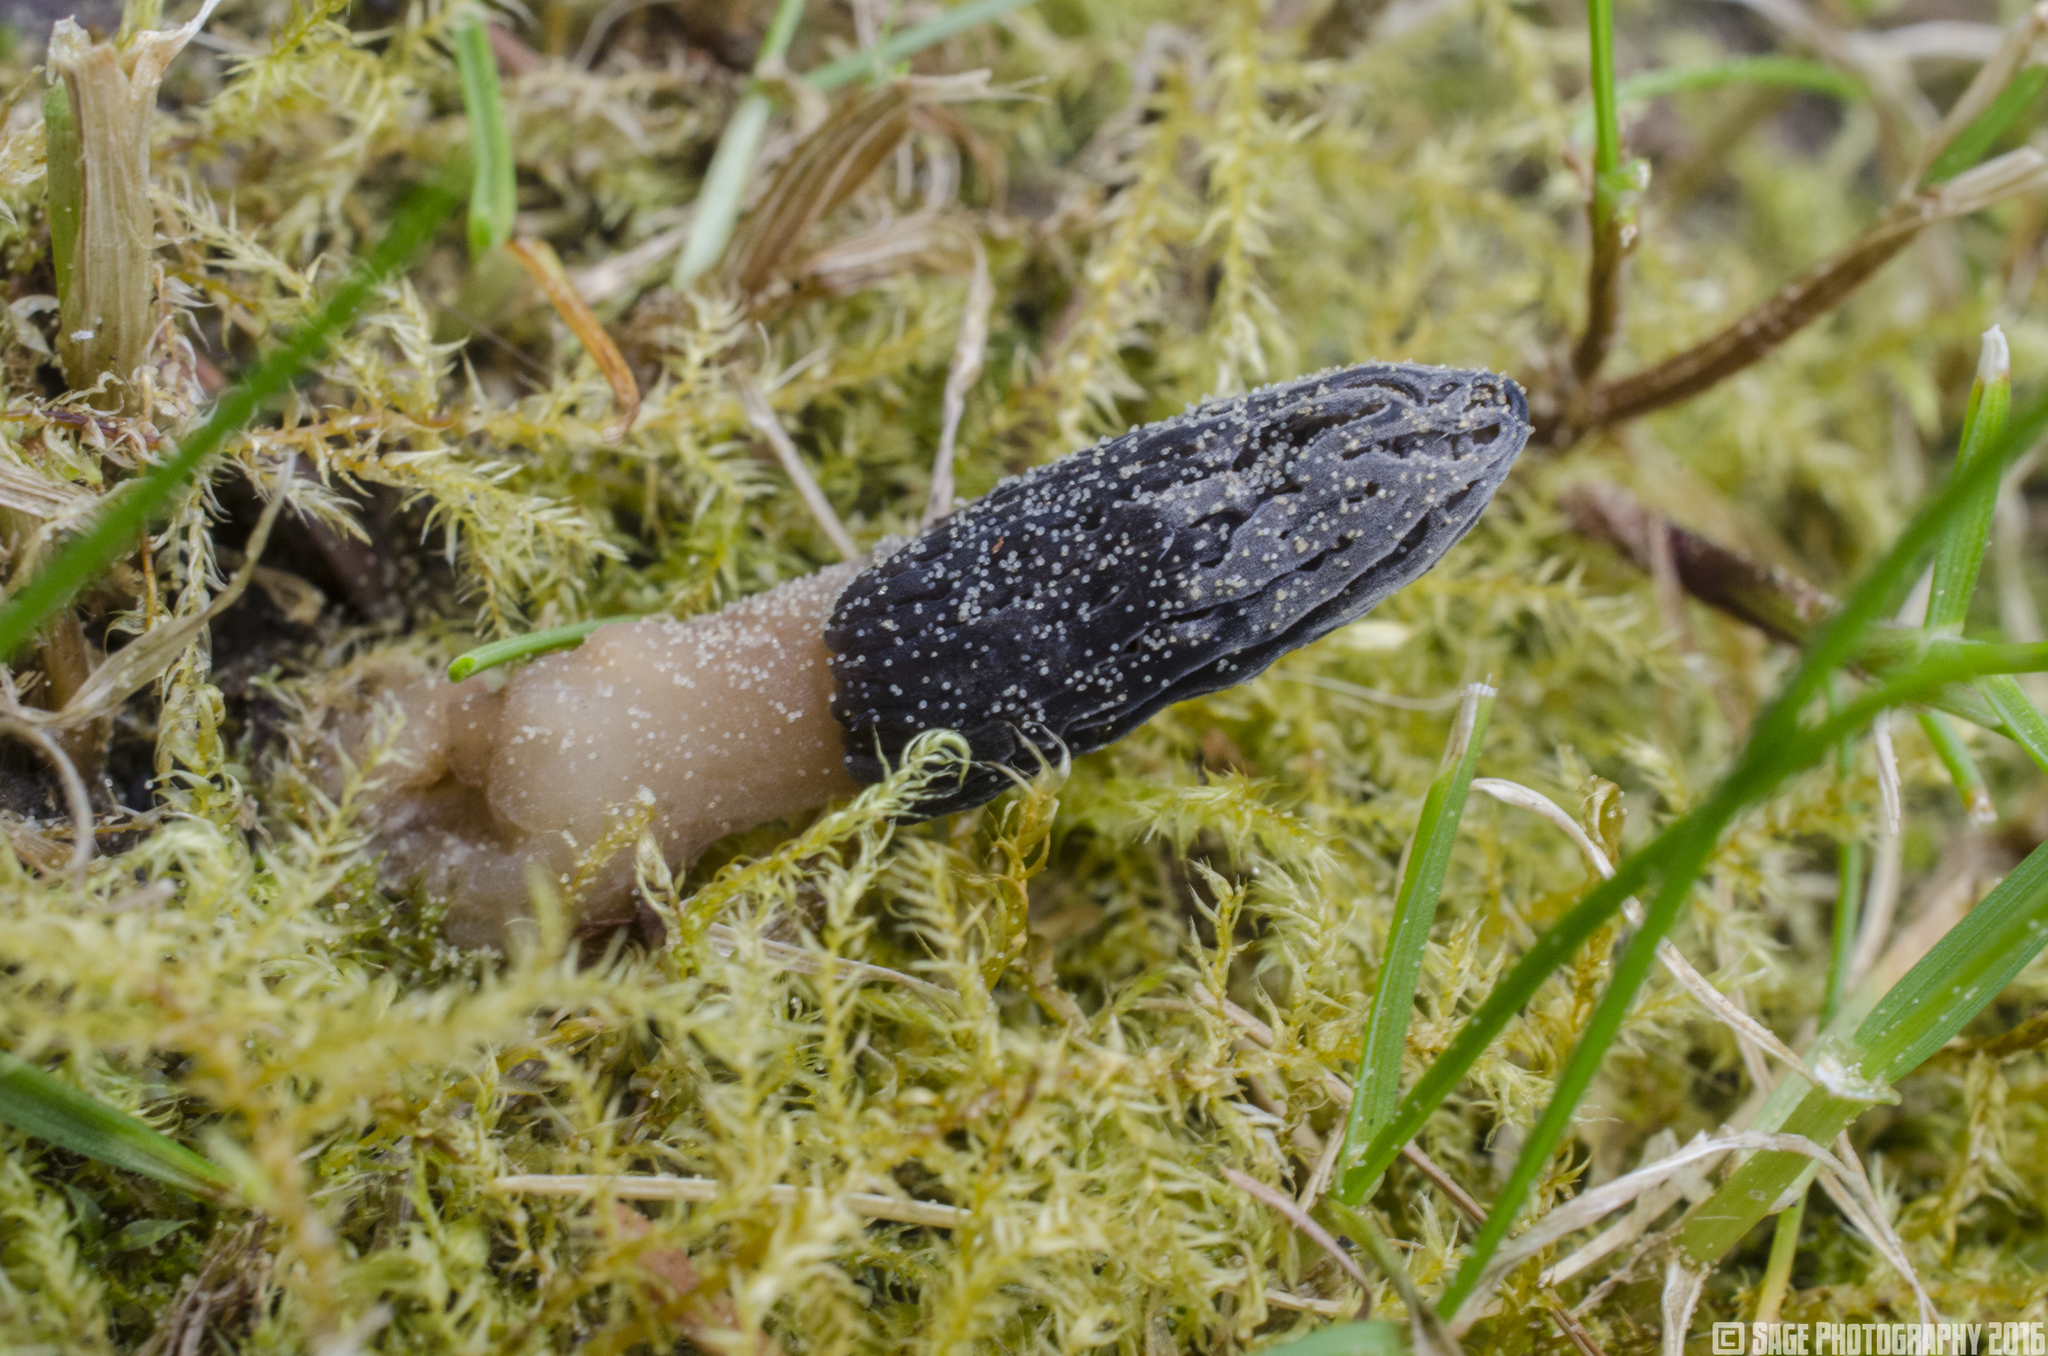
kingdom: Fungi
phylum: Ascomycota
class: Pezizomycetes
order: Pezizales
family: Morchellaceae
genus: Morchella
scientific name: Morchella importuna
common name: Landscaping black morel
